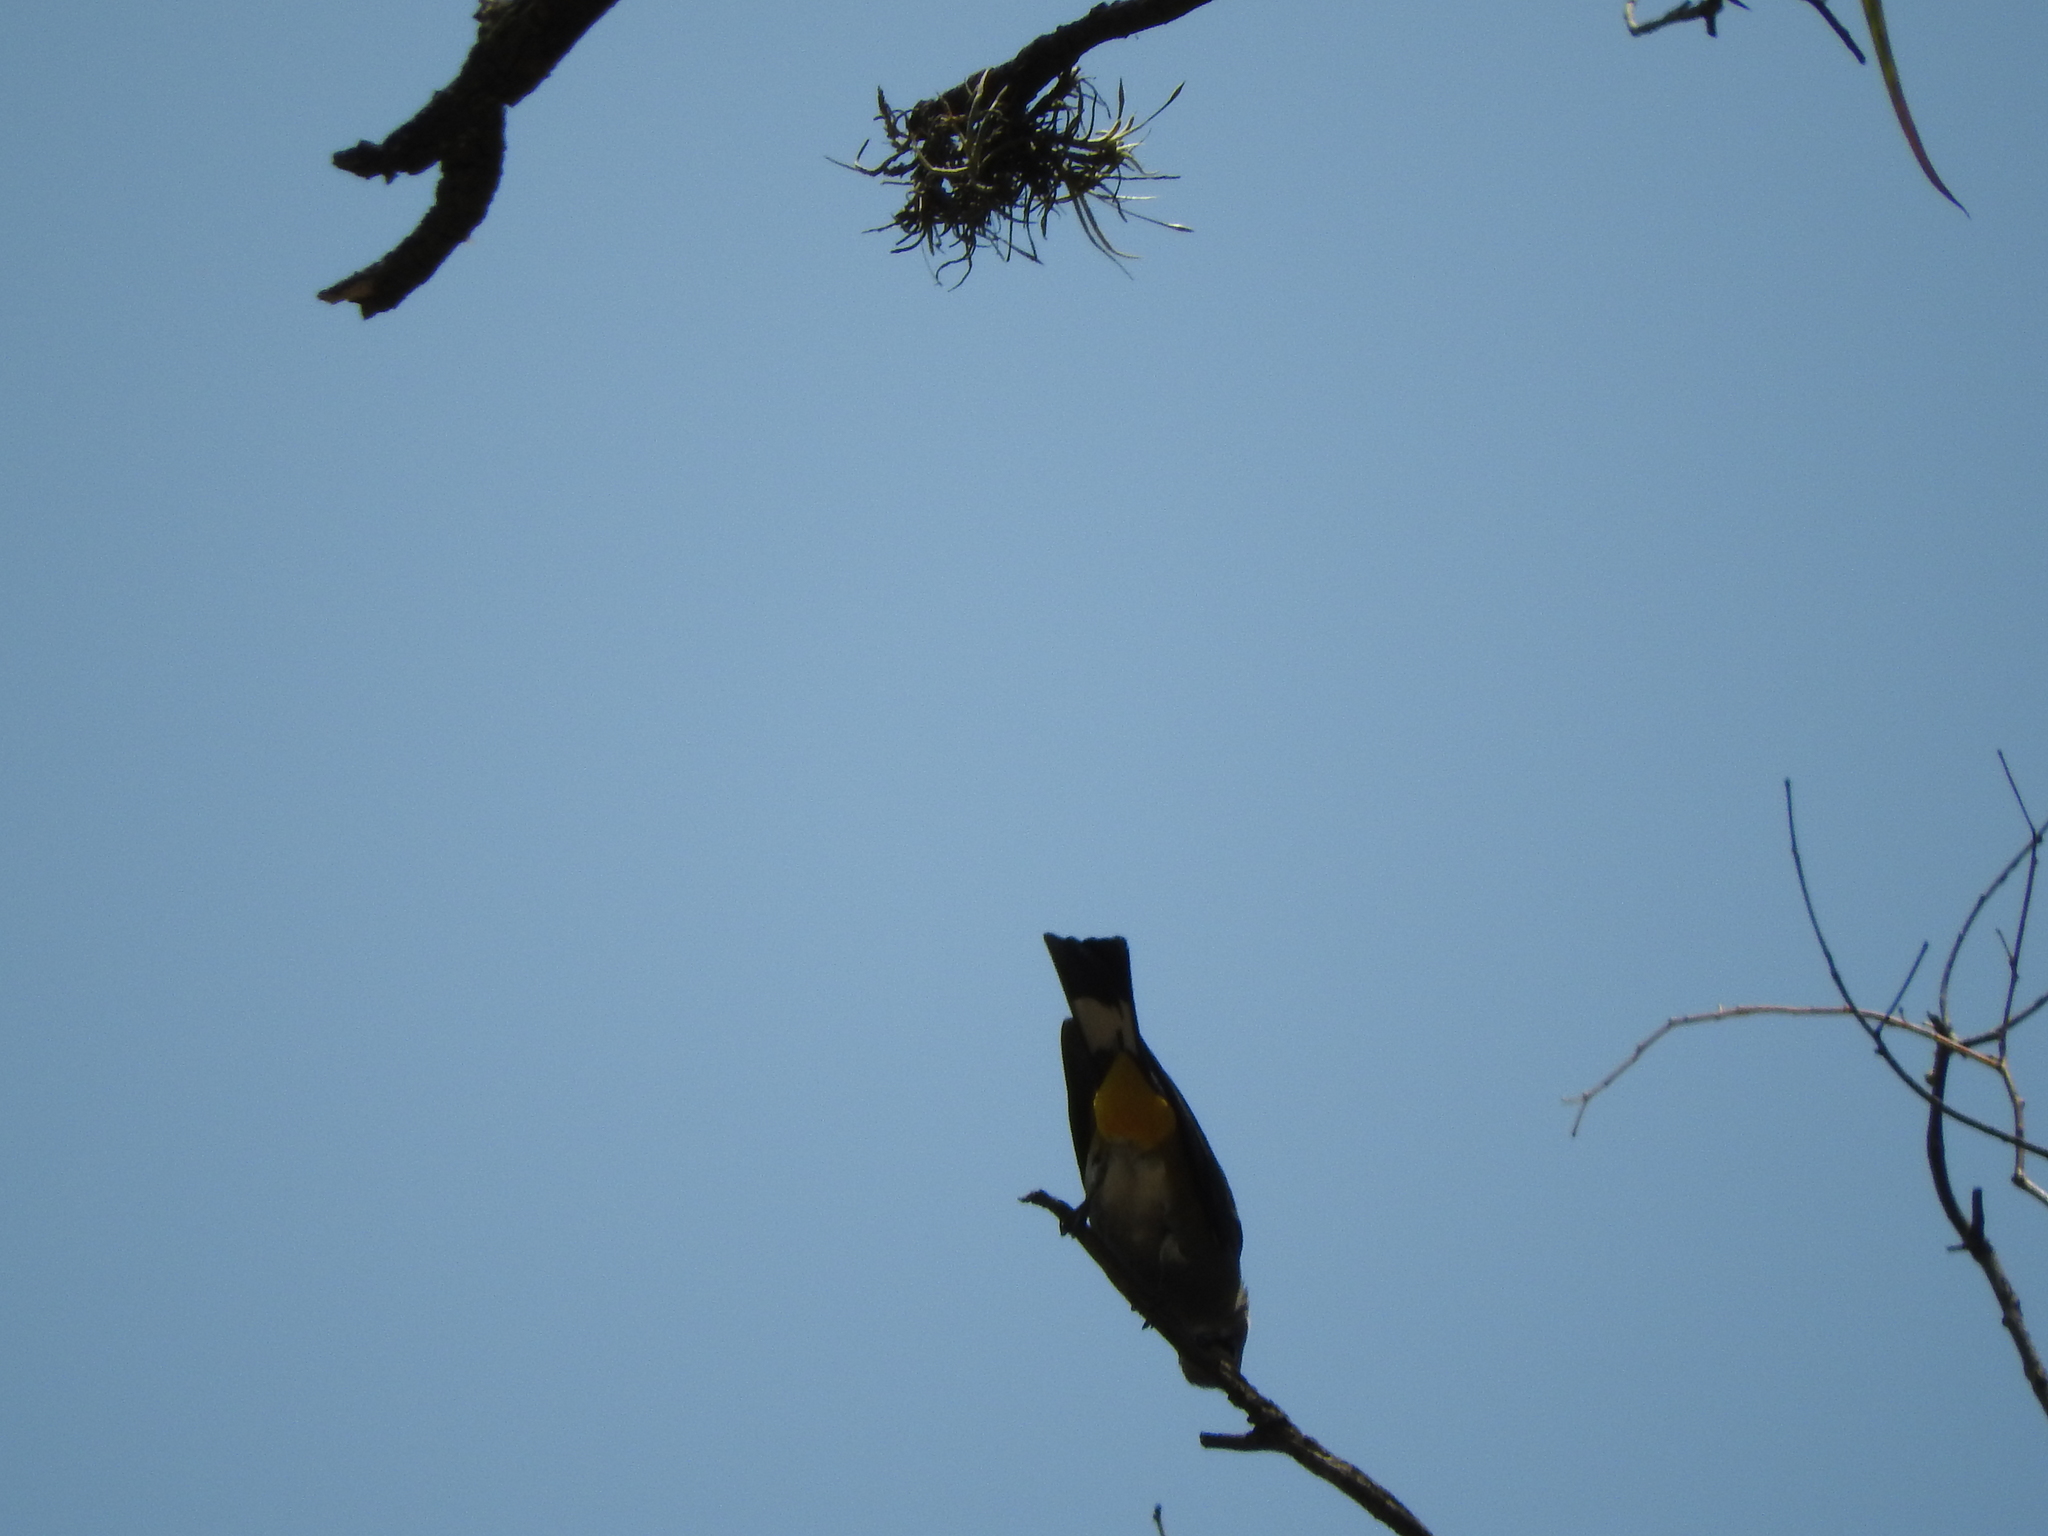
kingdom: Animalia
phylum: Chordata
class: Aves
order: Passeriformes
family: Ptilogonatidae
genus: Ptilogonys
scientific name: Ptilogonys cinereus
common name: Gray silky-flycatcher
